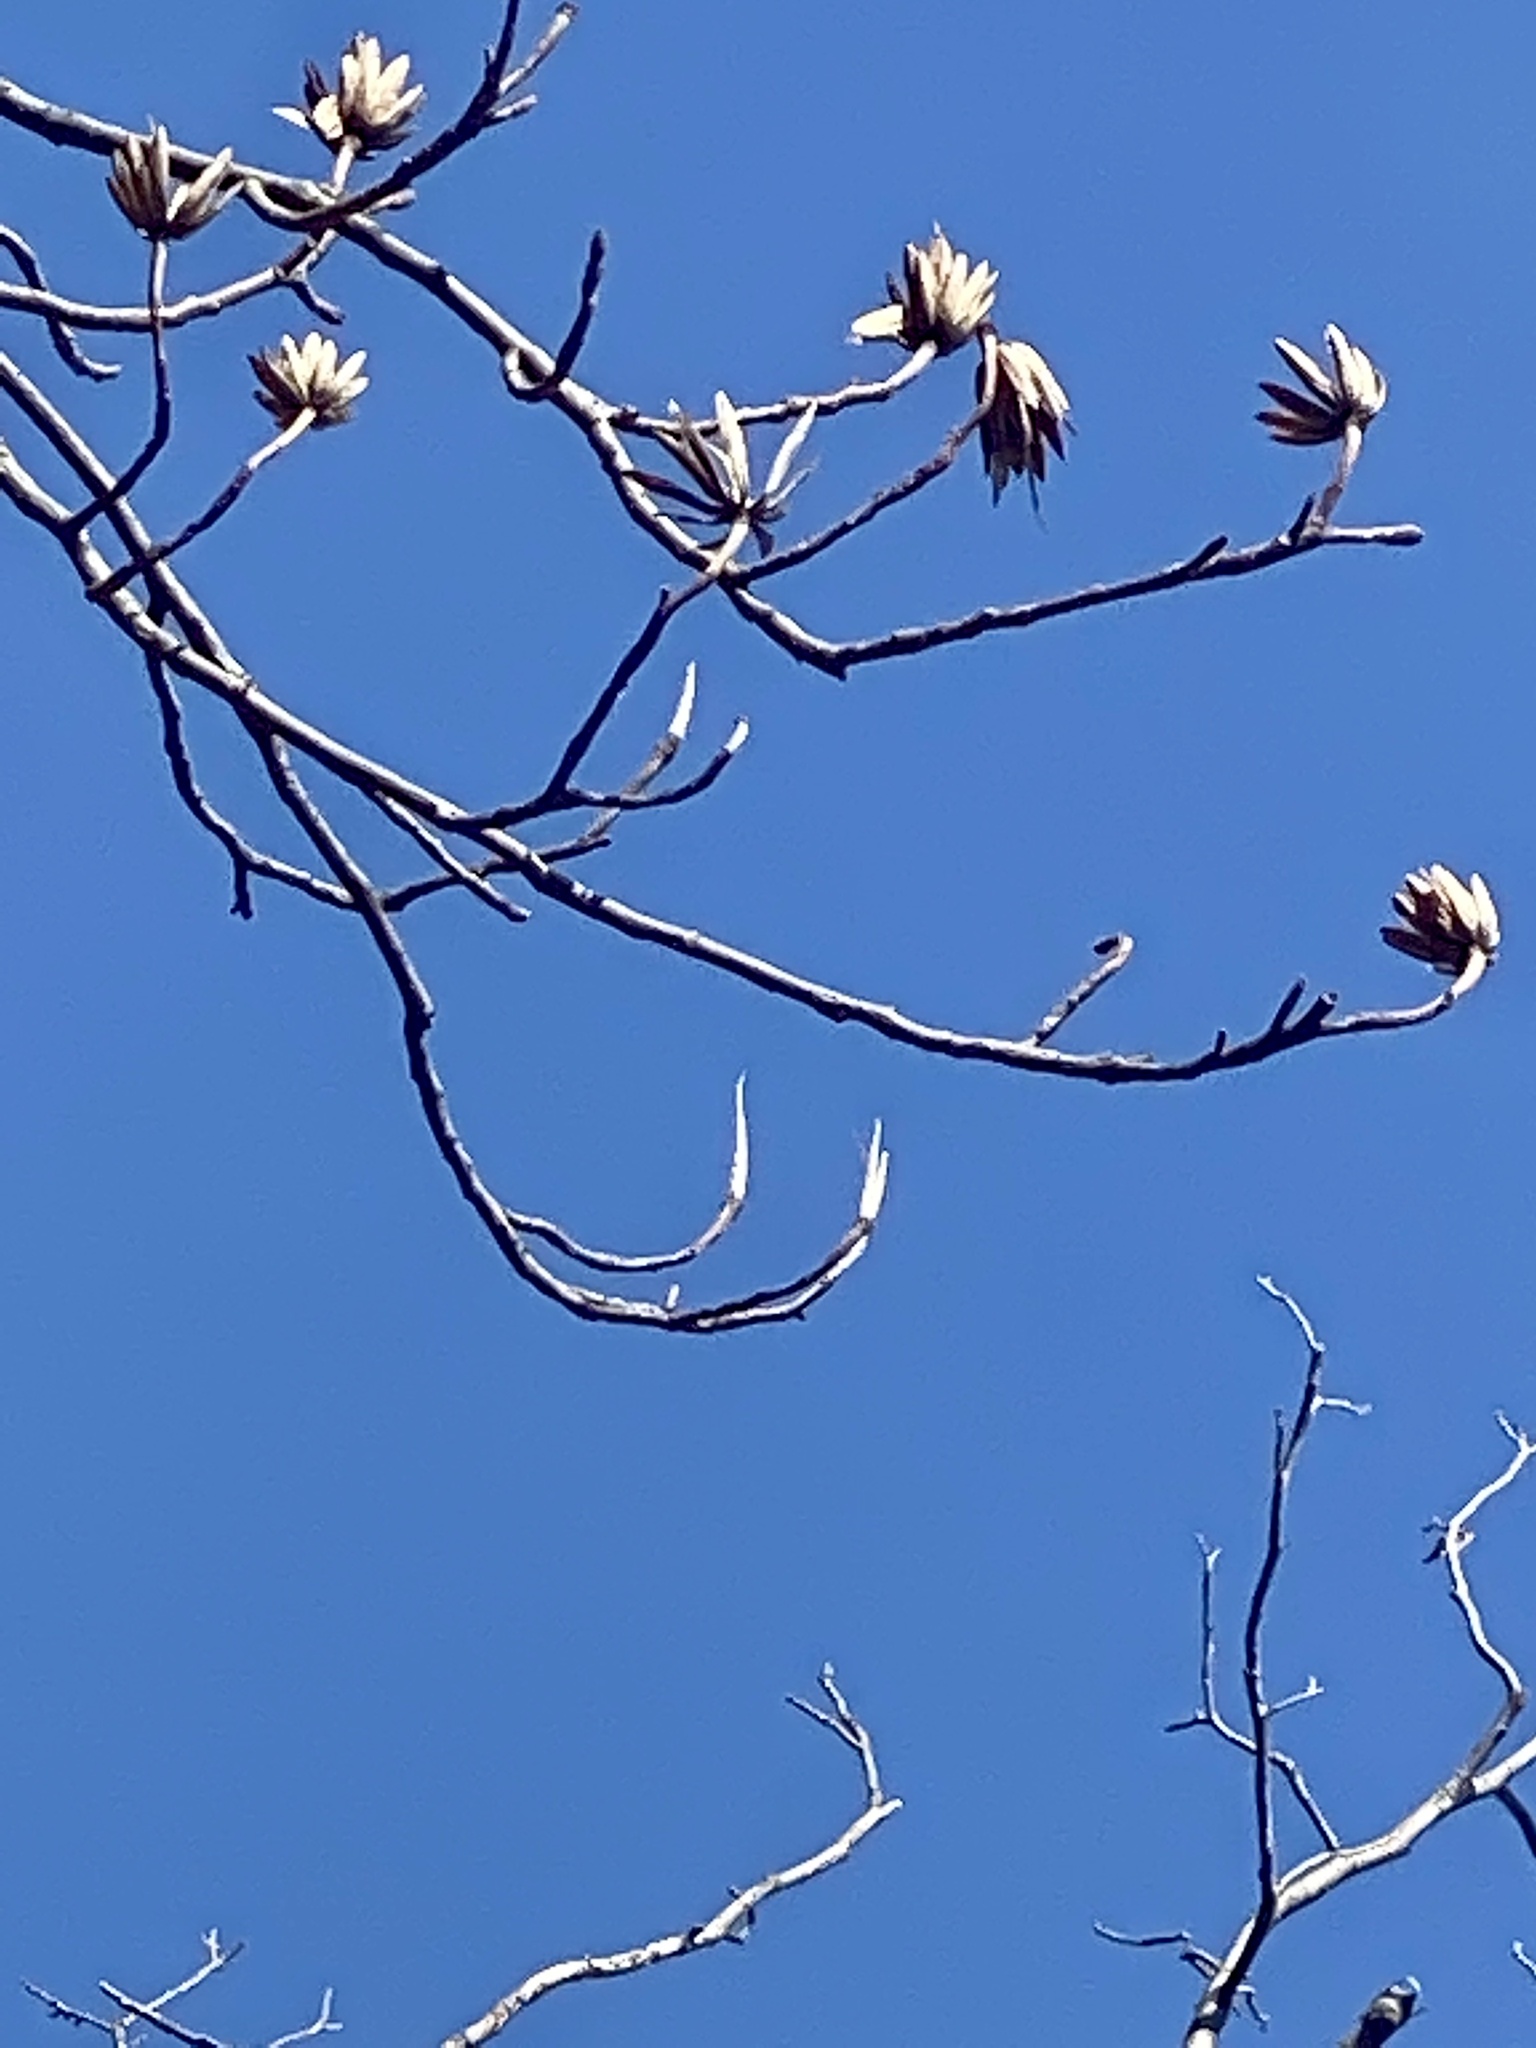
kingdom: Plantae
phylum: Tracheophyta
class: Magnoliopsida
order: Magnoliales
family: Magnoliaceae
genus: Liriodendron
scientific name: Liriodendron tulipifera
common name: Tulip tree
